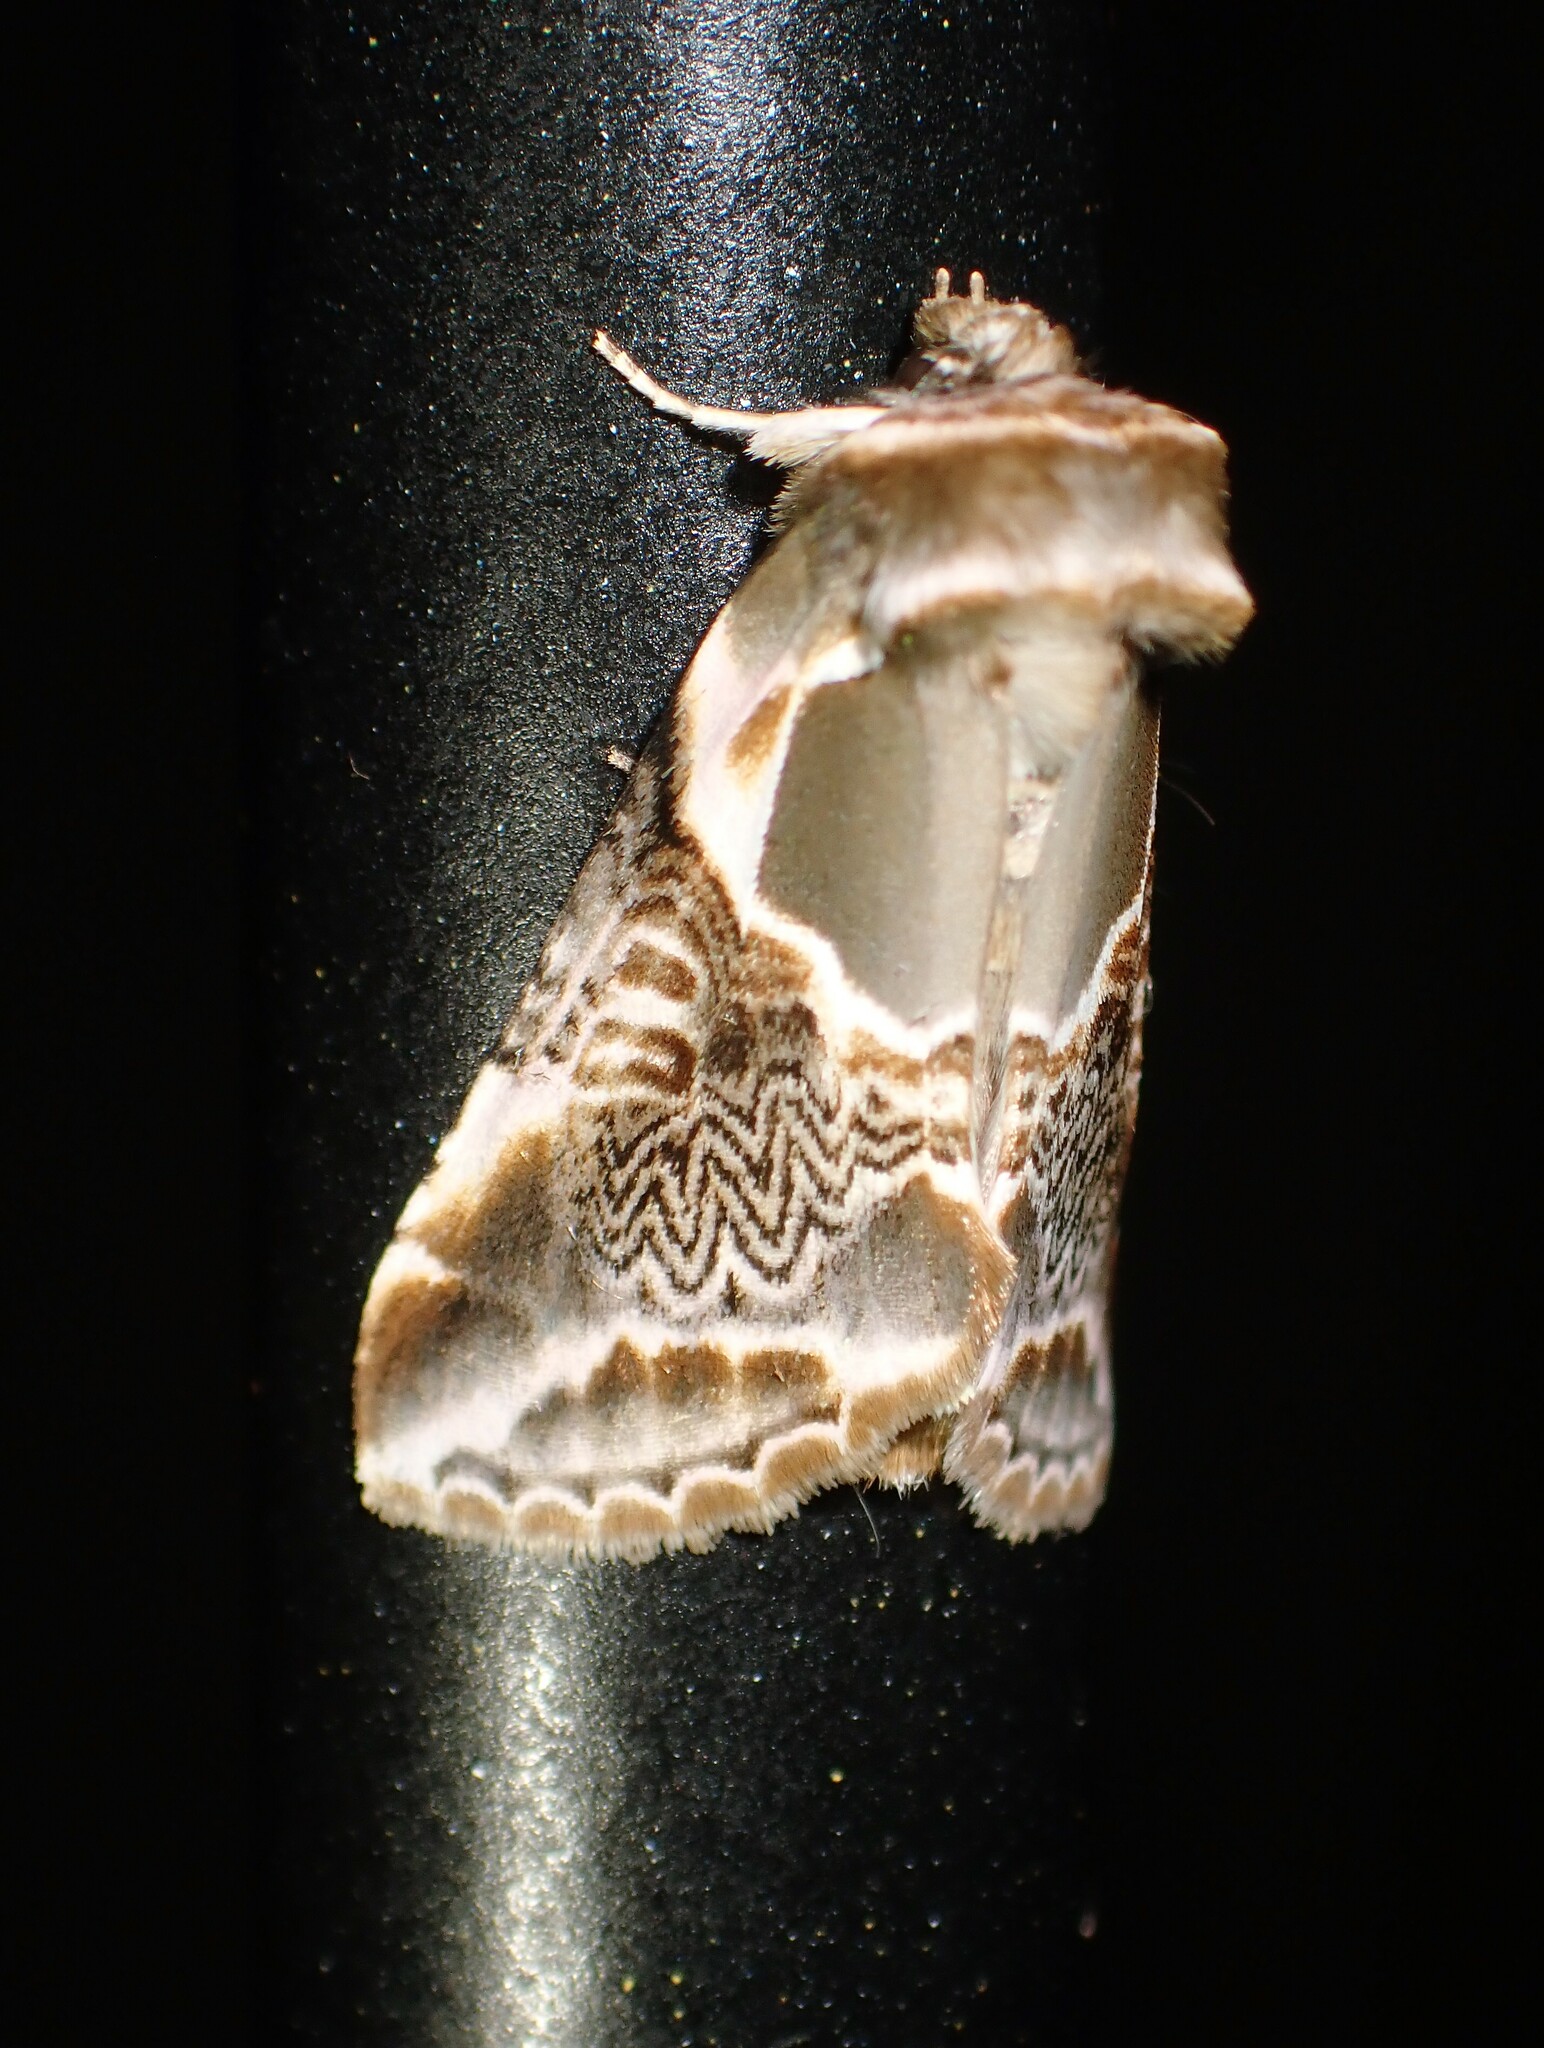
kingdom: Animalia
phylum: Arthropoda
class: Insecta
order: Lepidoptera
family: Drepanidae
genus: Habrosyne
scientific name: Habrosyne scripta
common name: Lettered habrosyne moth
